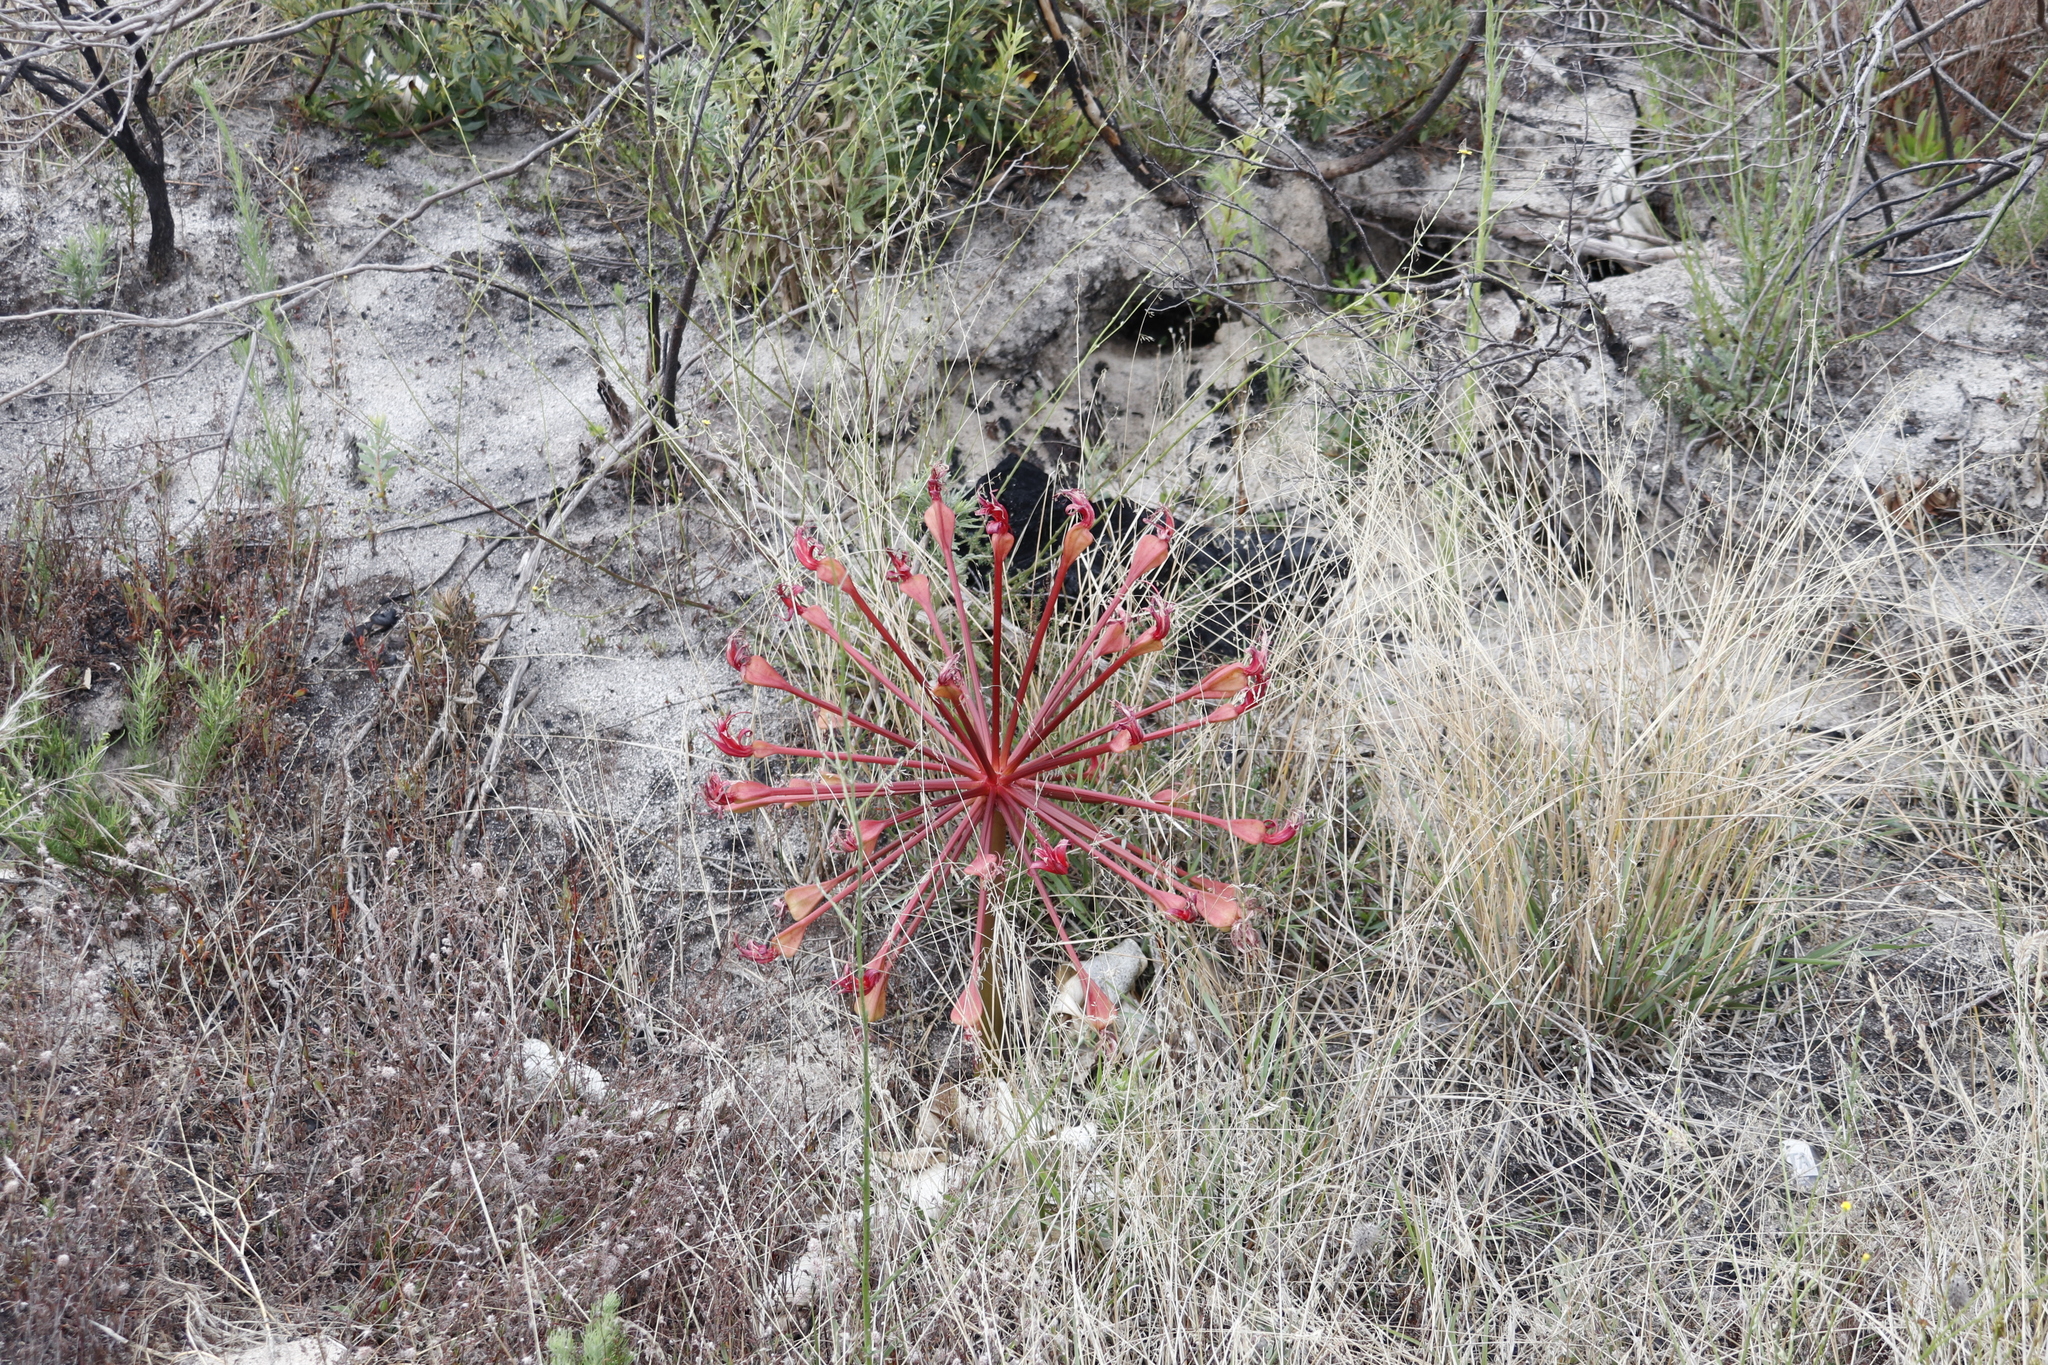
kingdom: Plantae
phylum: Tracheophyta
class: Liliopsida
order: Asparagales
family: Amaryllidaceae
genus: Brunsvigia
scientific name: Brunsvigia orientalis
